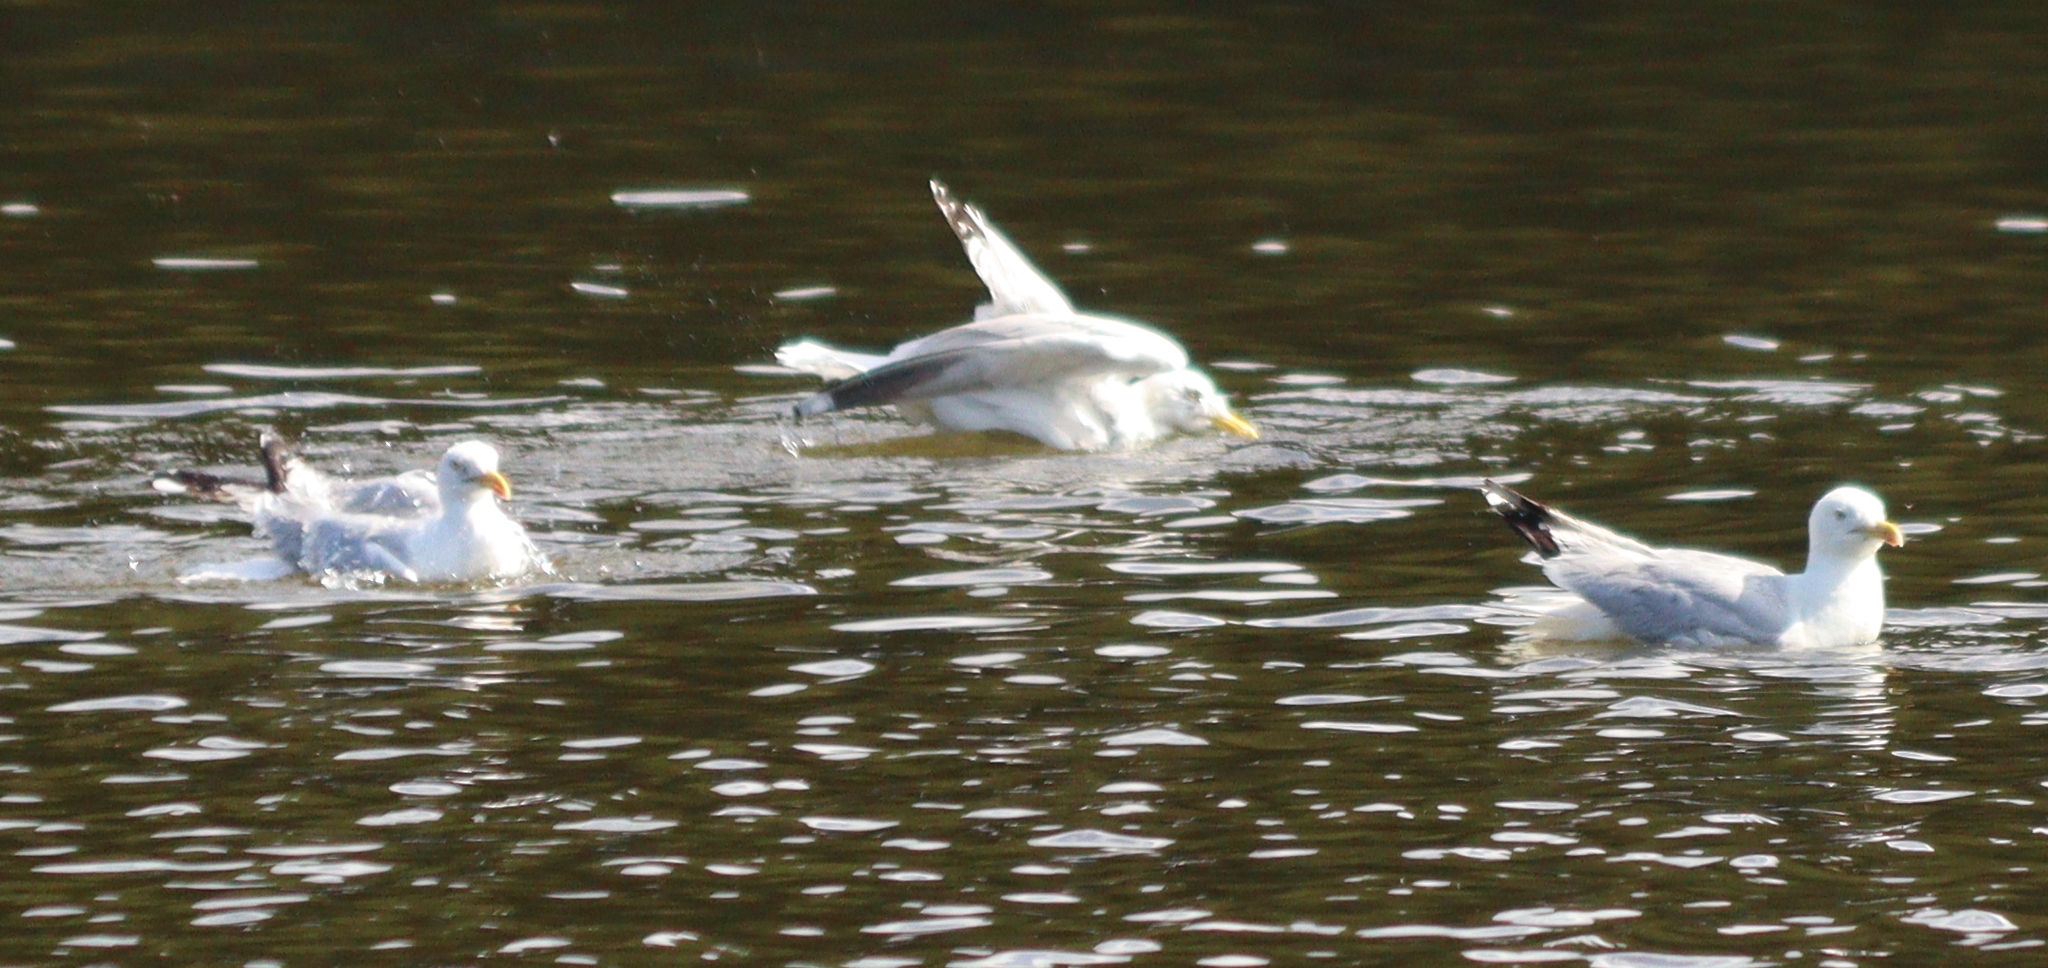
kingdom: Animalia
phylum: Chordata
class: Aves
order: Charadriiformes
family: Laridae
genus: Larus
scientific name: Larus argentatus
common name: Herring gull
